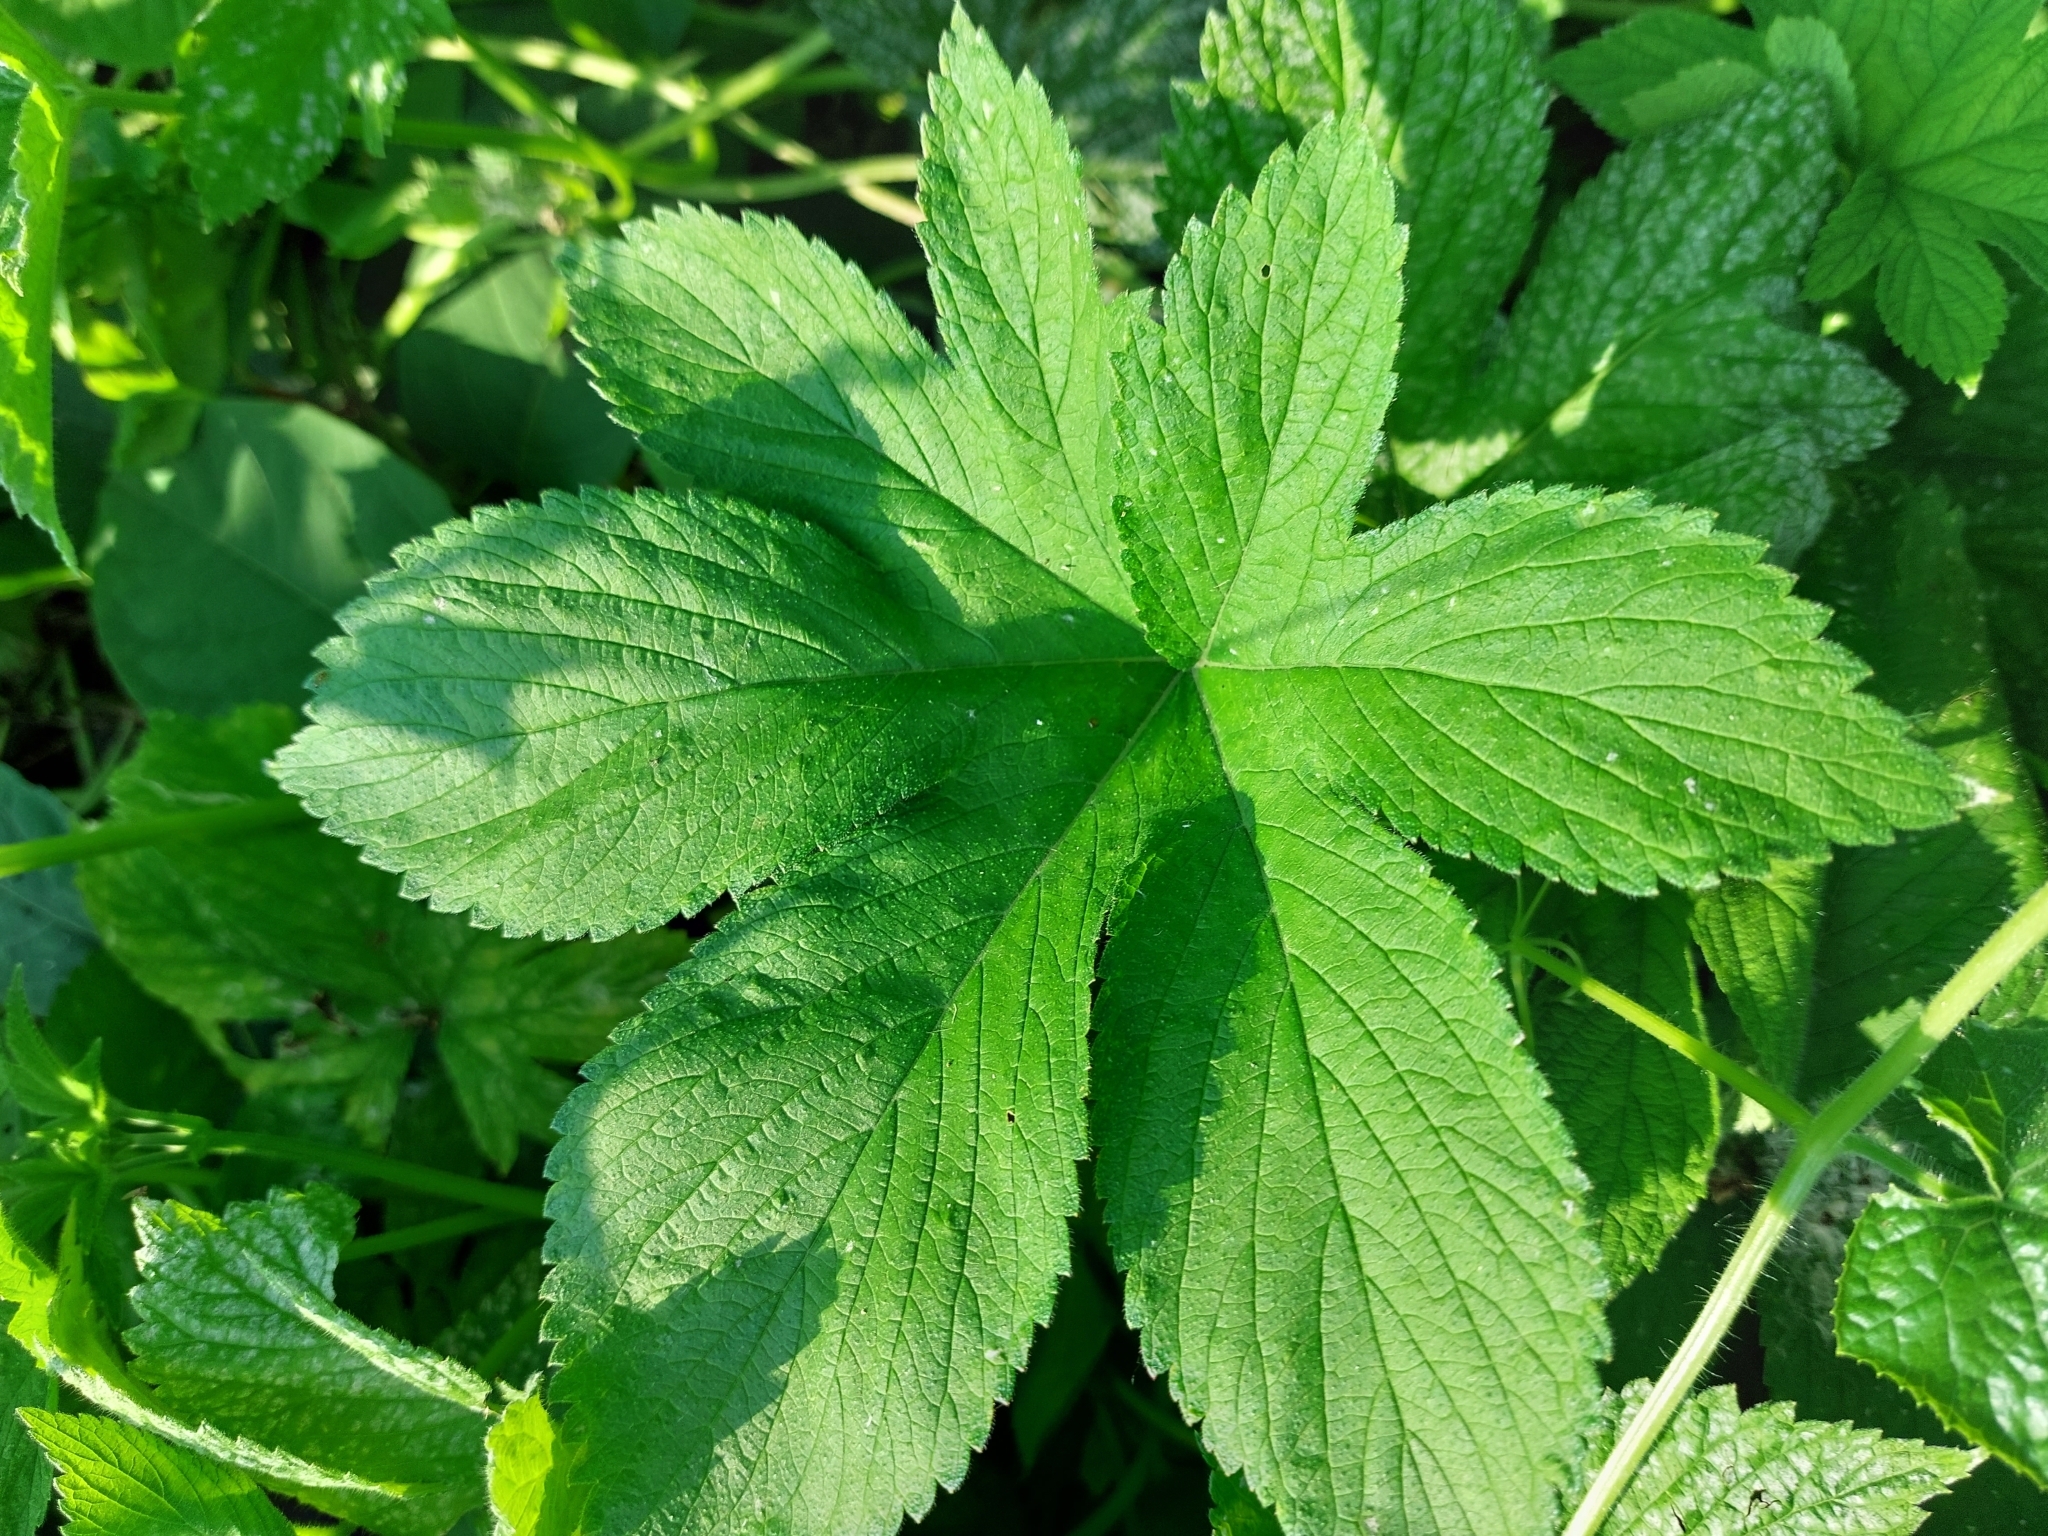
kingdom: Plantae
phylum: Tracheophyta
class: Magnoliopsida
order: Rosales
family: Cannabaceae
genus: Humulus
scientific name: Humulus scandens
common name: Japanese hop
